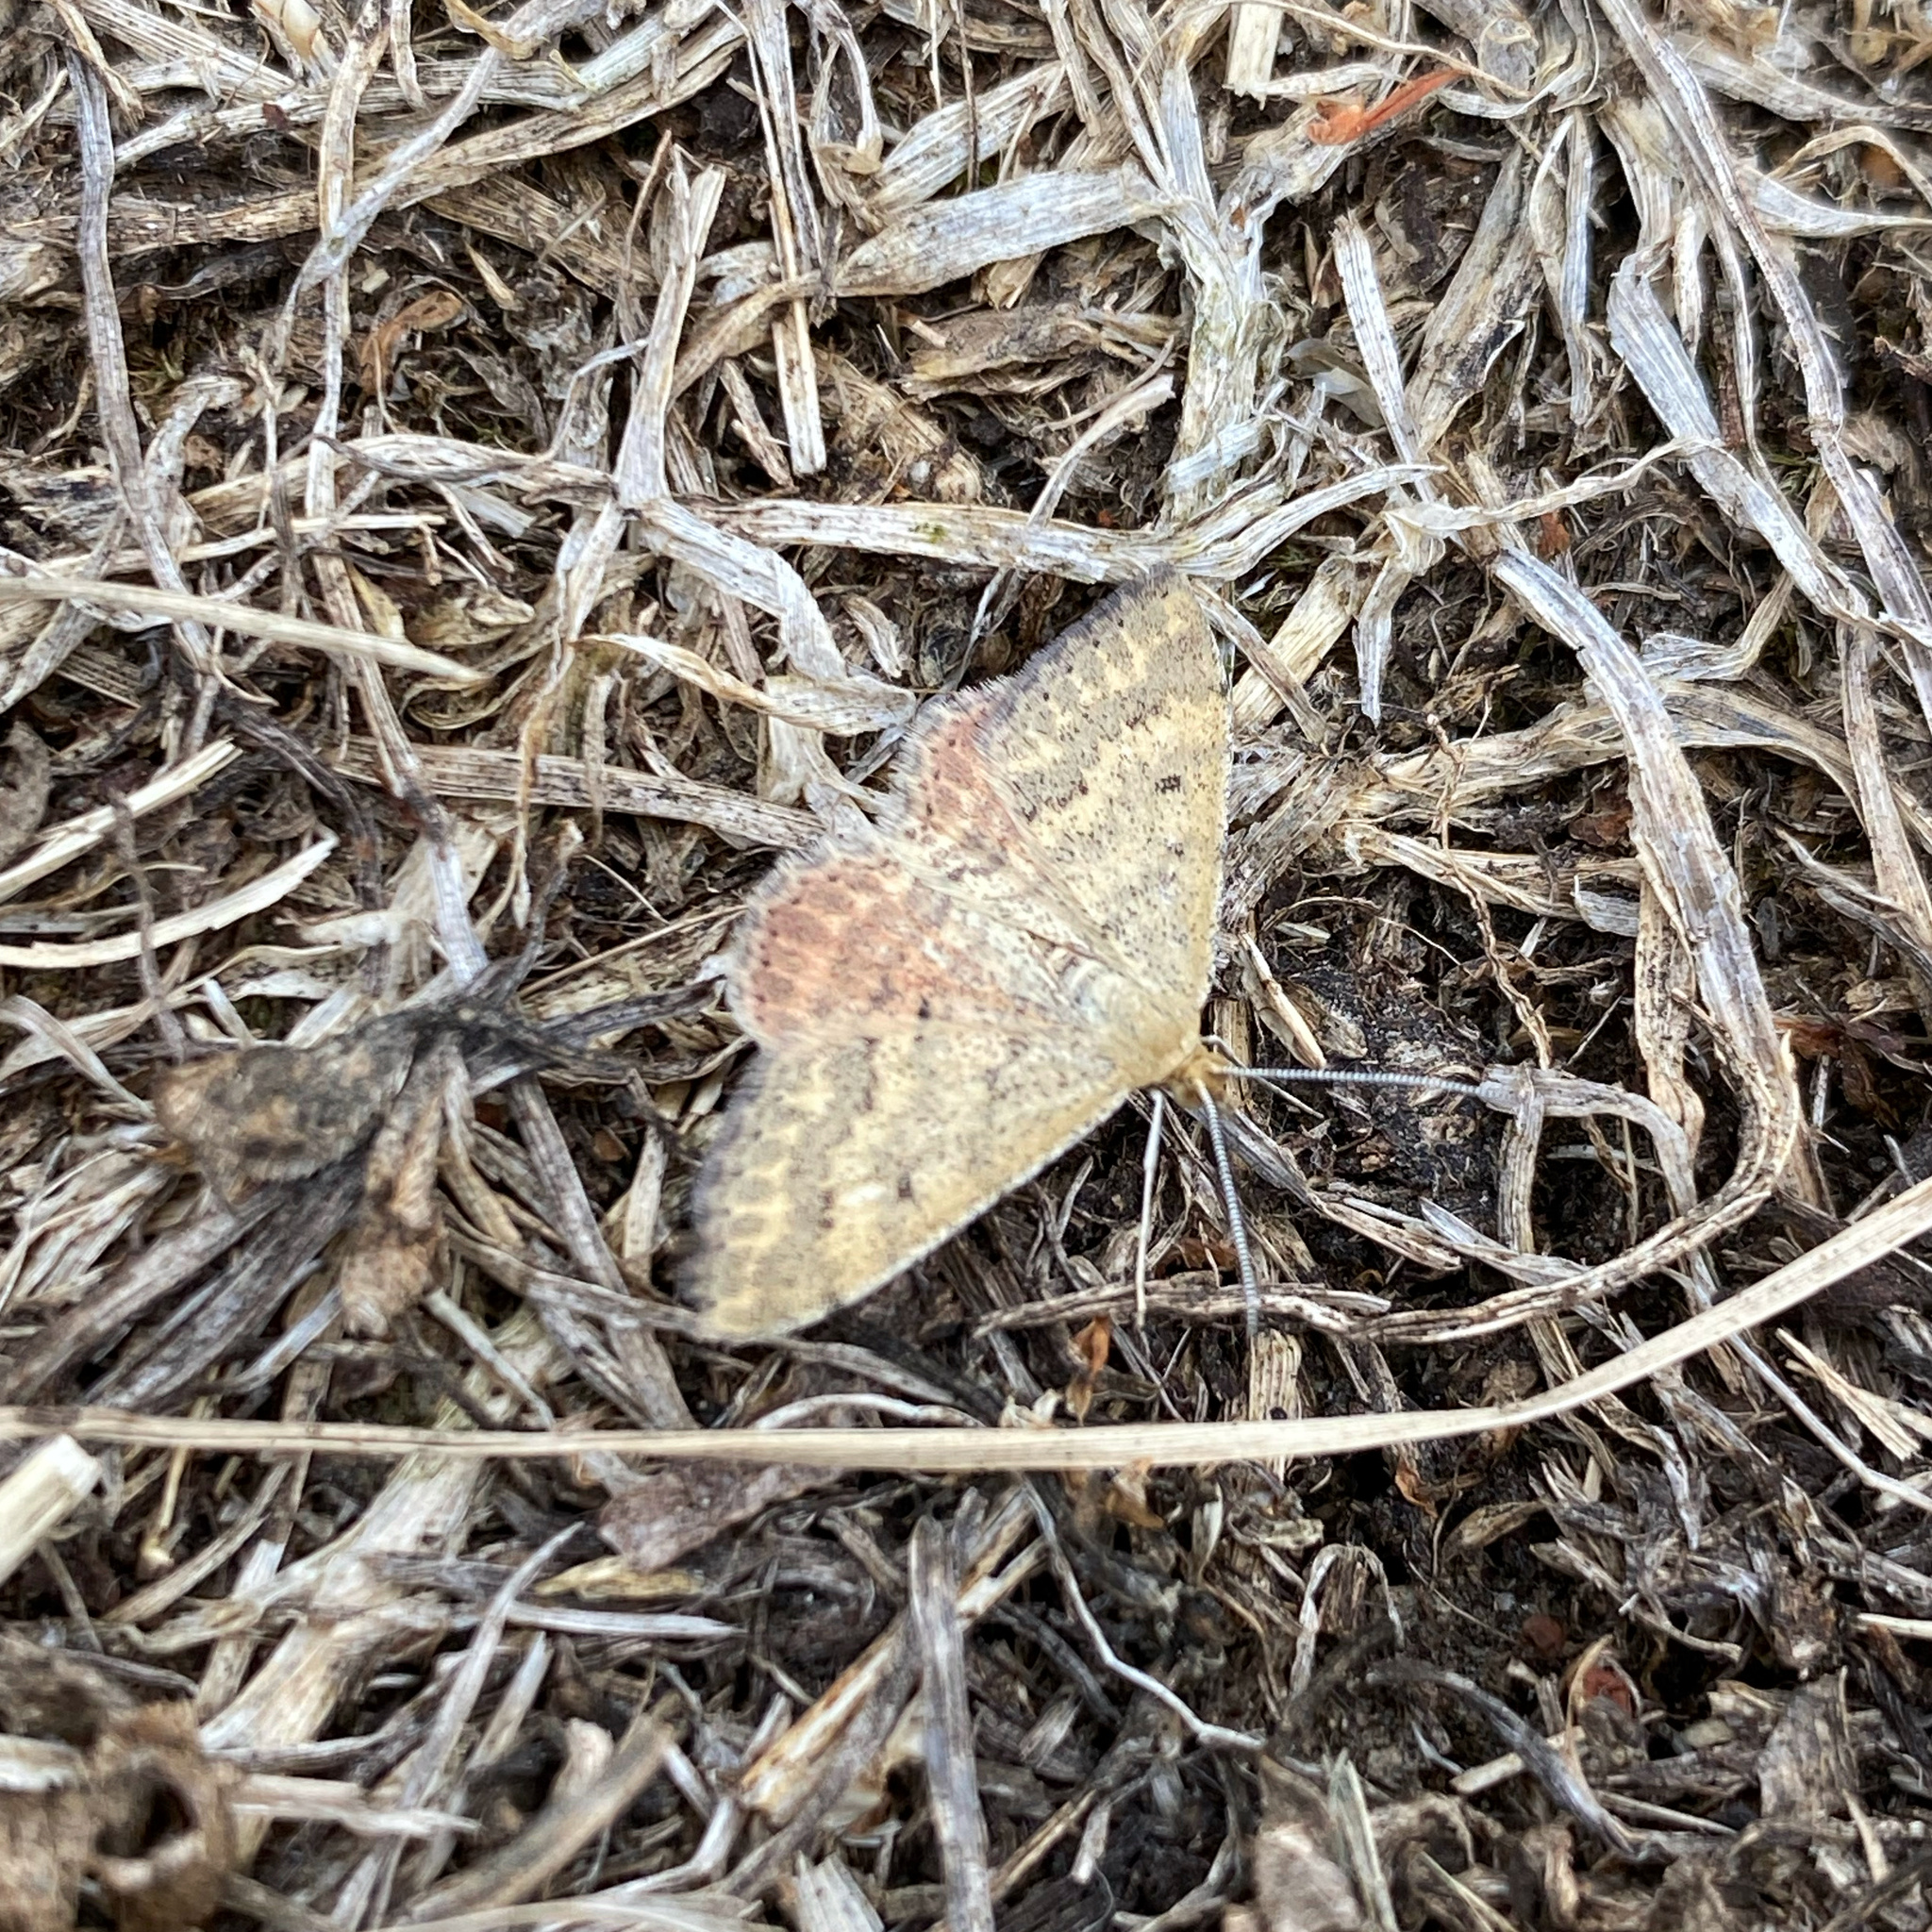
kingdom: Animalia
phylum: Arthropoda
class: Insecta
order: Lepidoptera
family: Geometridae
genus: Scopula
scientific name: Scopula rubraria
